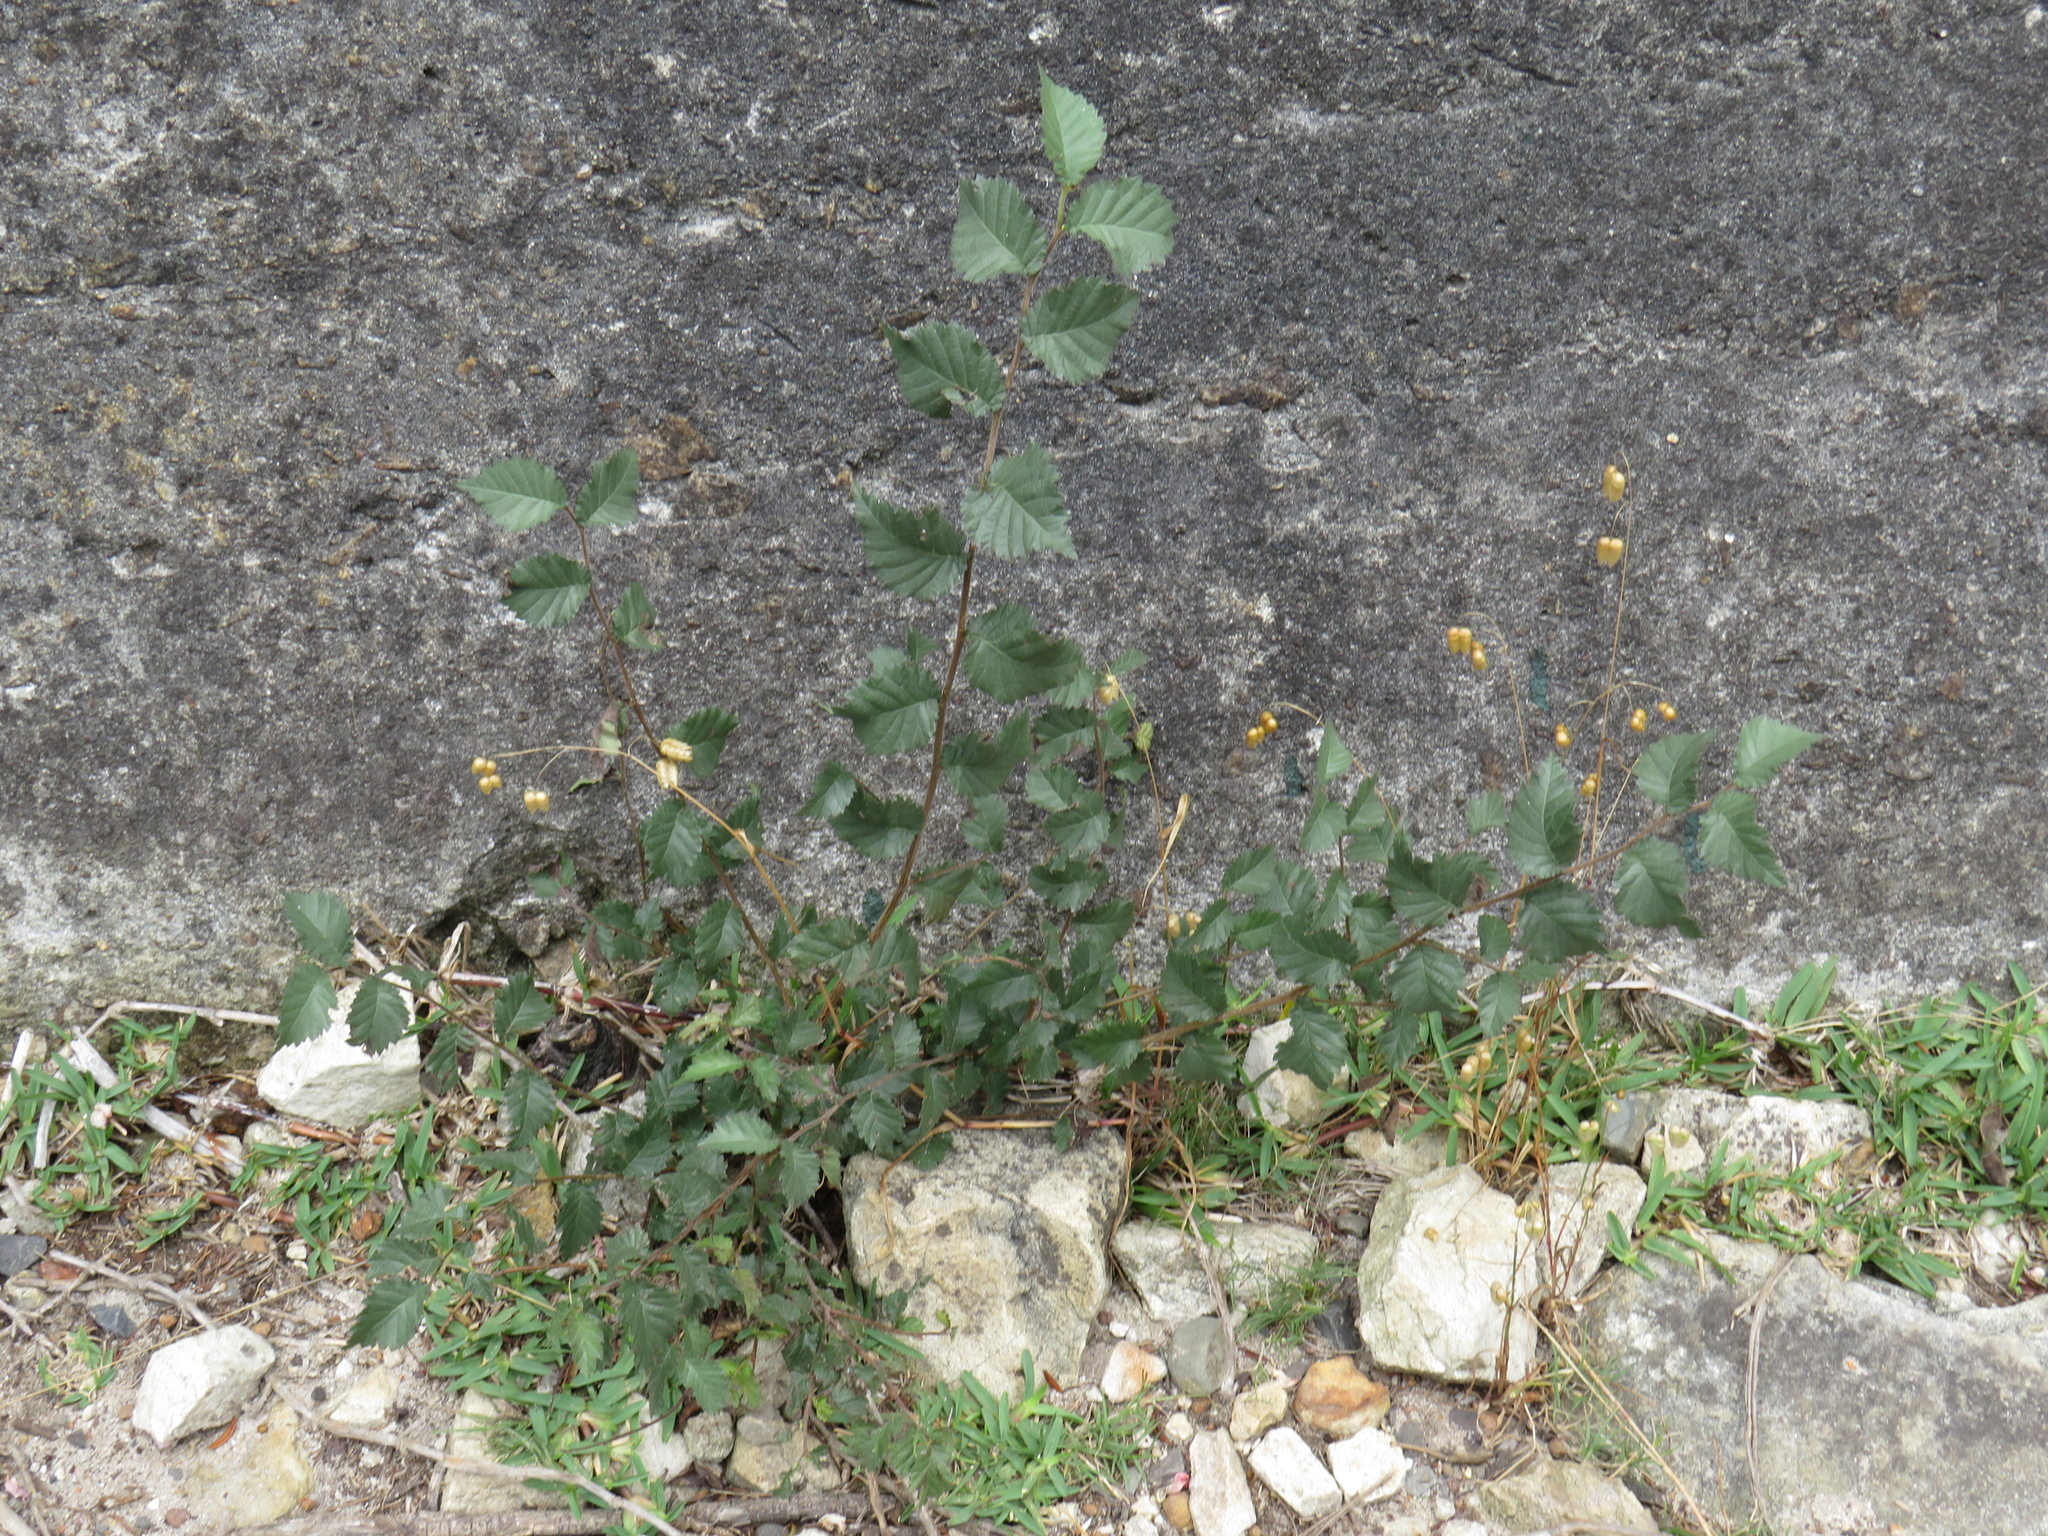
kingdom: Plantae
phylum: Tracheophyta
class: Magnoliopsida
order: Rosales
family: Ulmaceae
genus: Ulmus
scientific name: Ulmus minor
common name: Small-leaved elm
